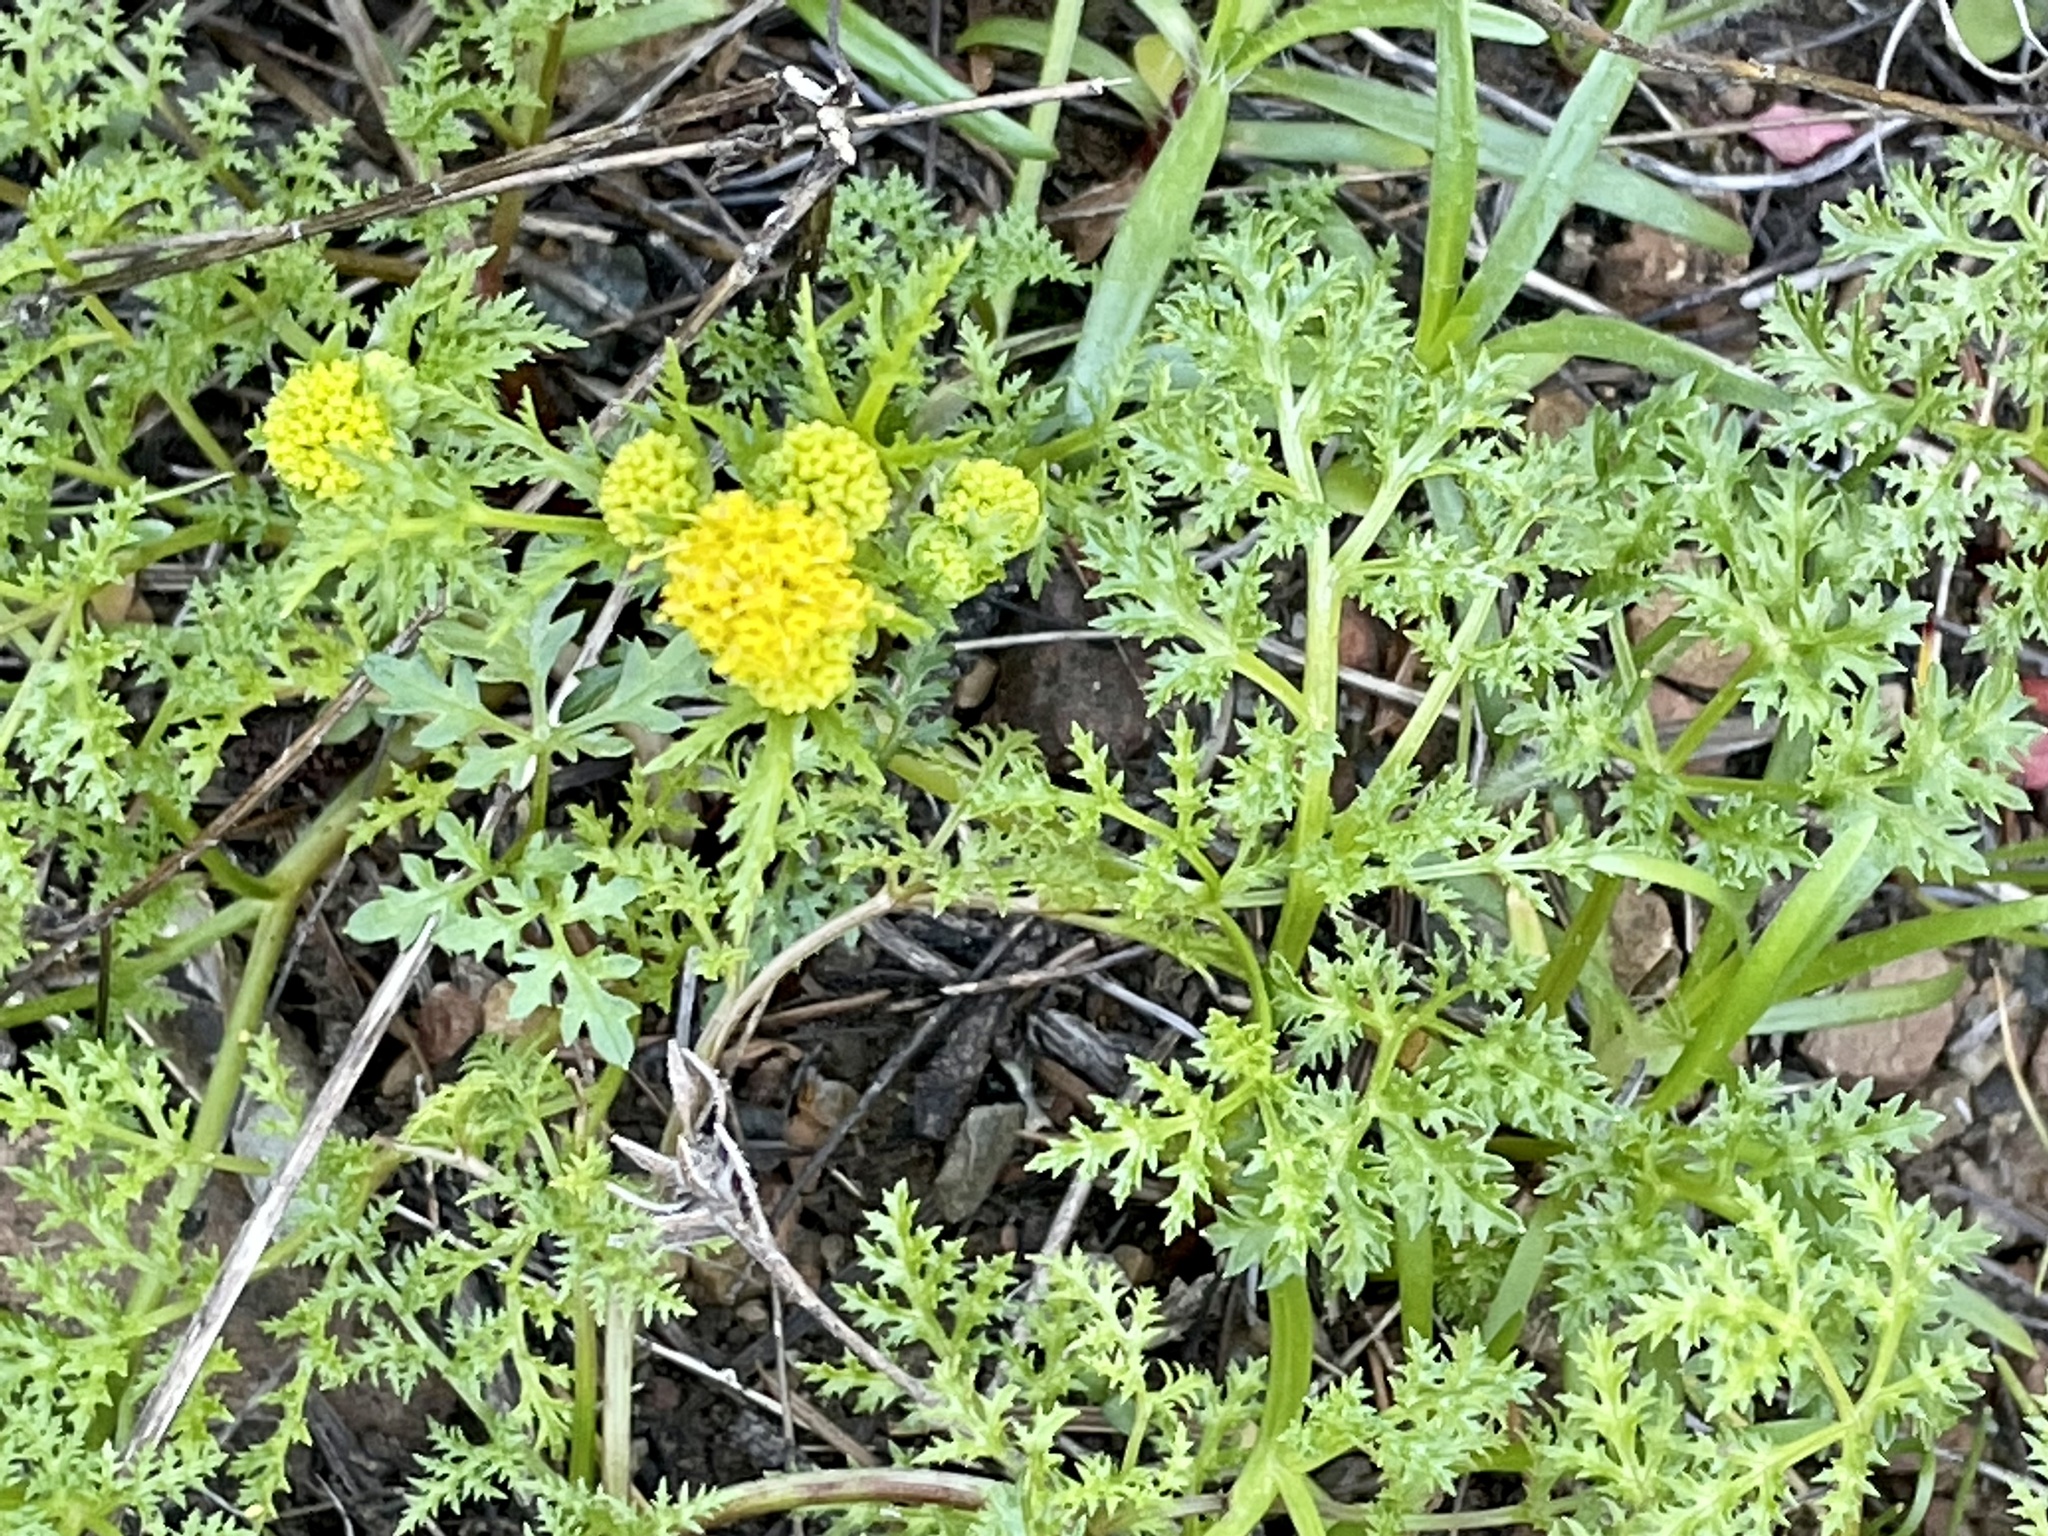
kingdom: Plantae
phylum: Tracheophyta
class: Magnoliopsida
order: Apiales
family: Apiaceae
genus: Sanicula
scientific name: Sanicula tuberosa
